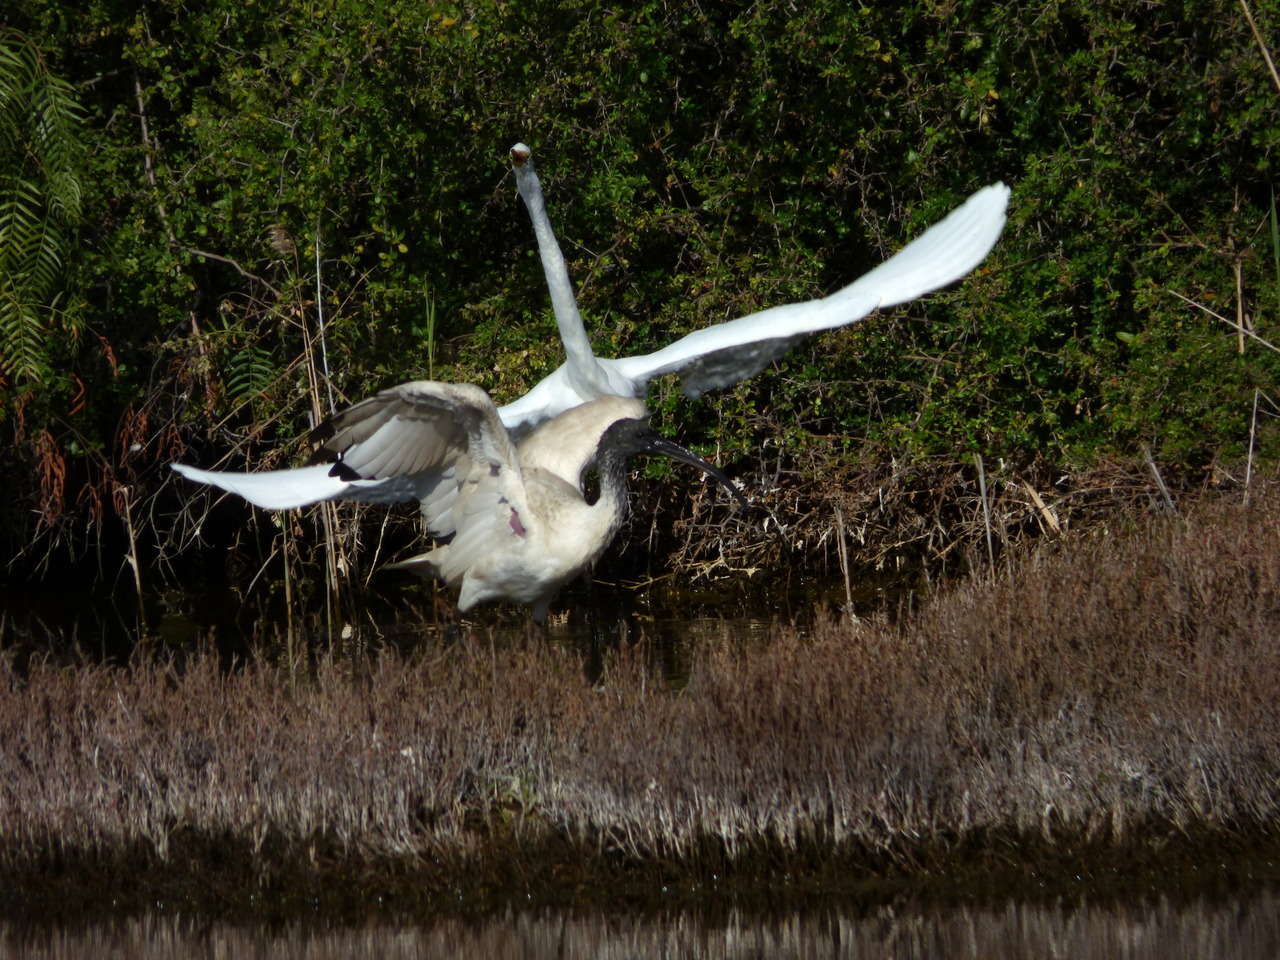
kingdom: Animalia
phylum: Chordata
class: Aves
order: Pelecaniformes
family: Threskiornithidae
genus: Threskiornis
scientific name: Threskiornis molucca
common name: Australian white ibis
